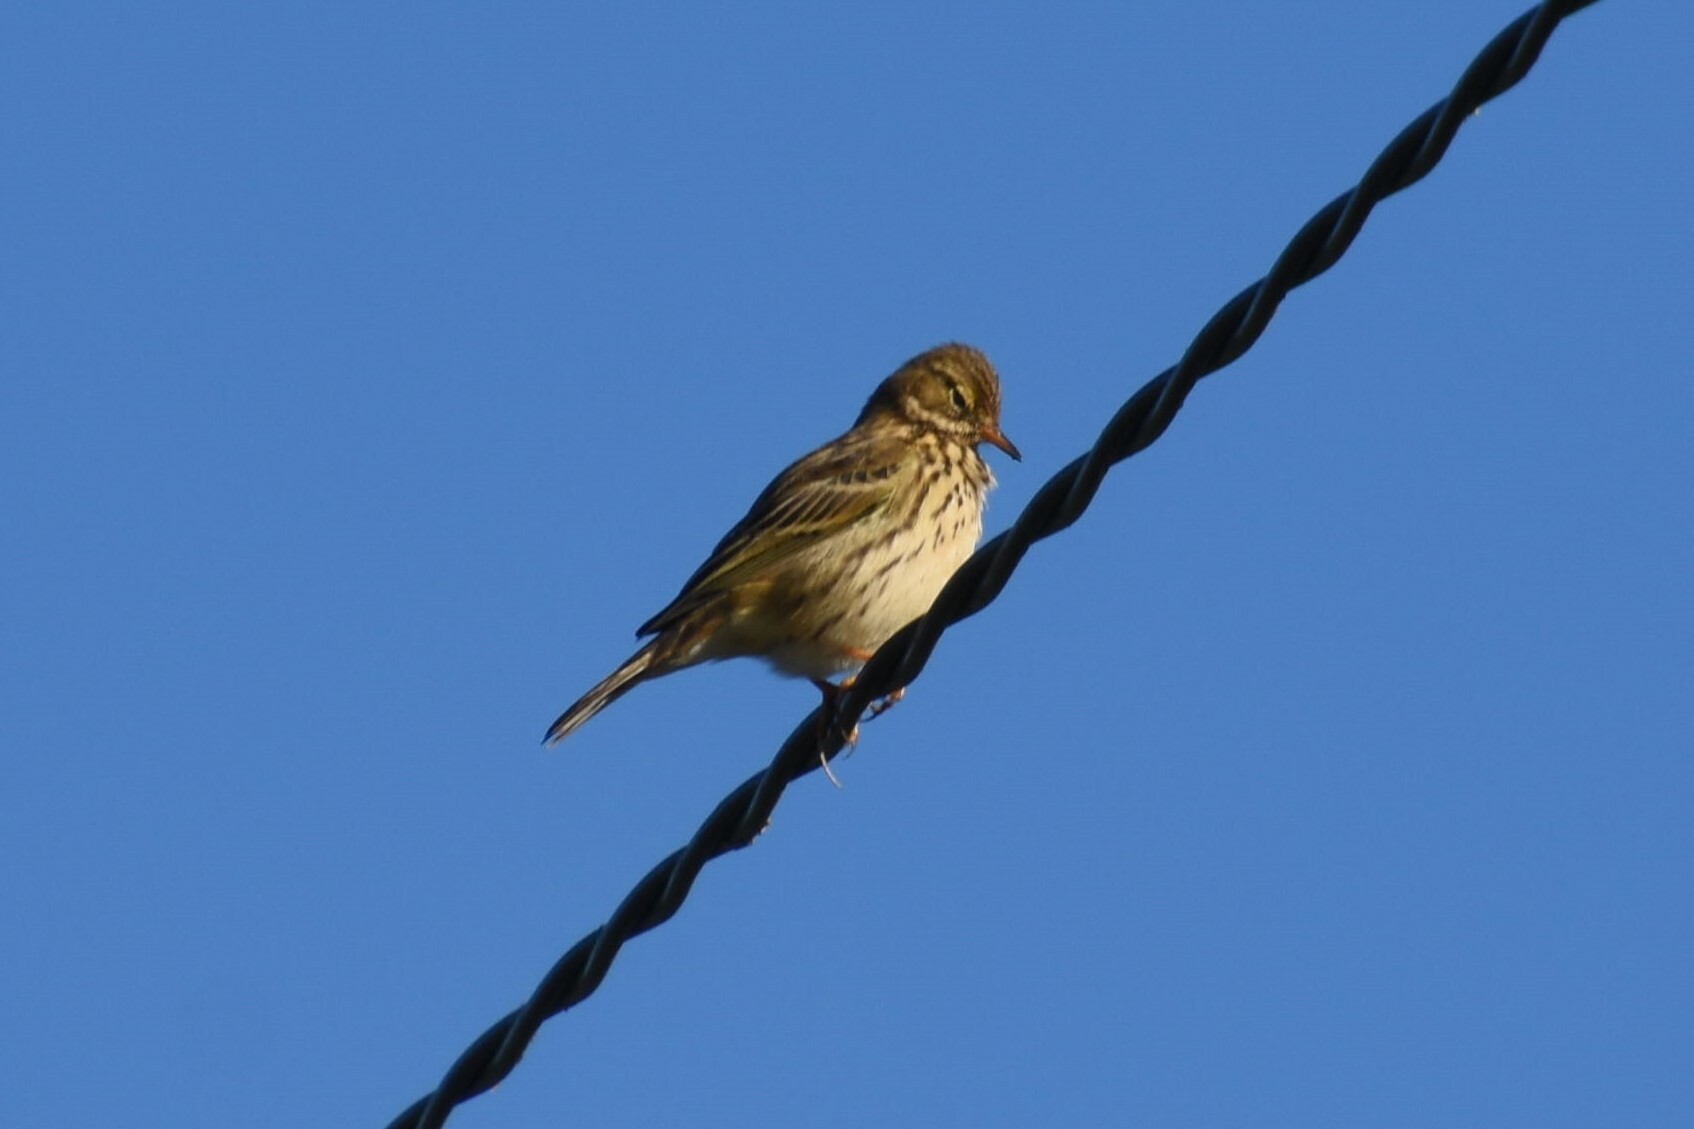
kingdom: Animalia
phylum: Chordata
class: Aves
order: Passeriformes
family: Motacillidae
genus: Anthus
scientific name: Anthus pratensis
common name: Meadow pipit
